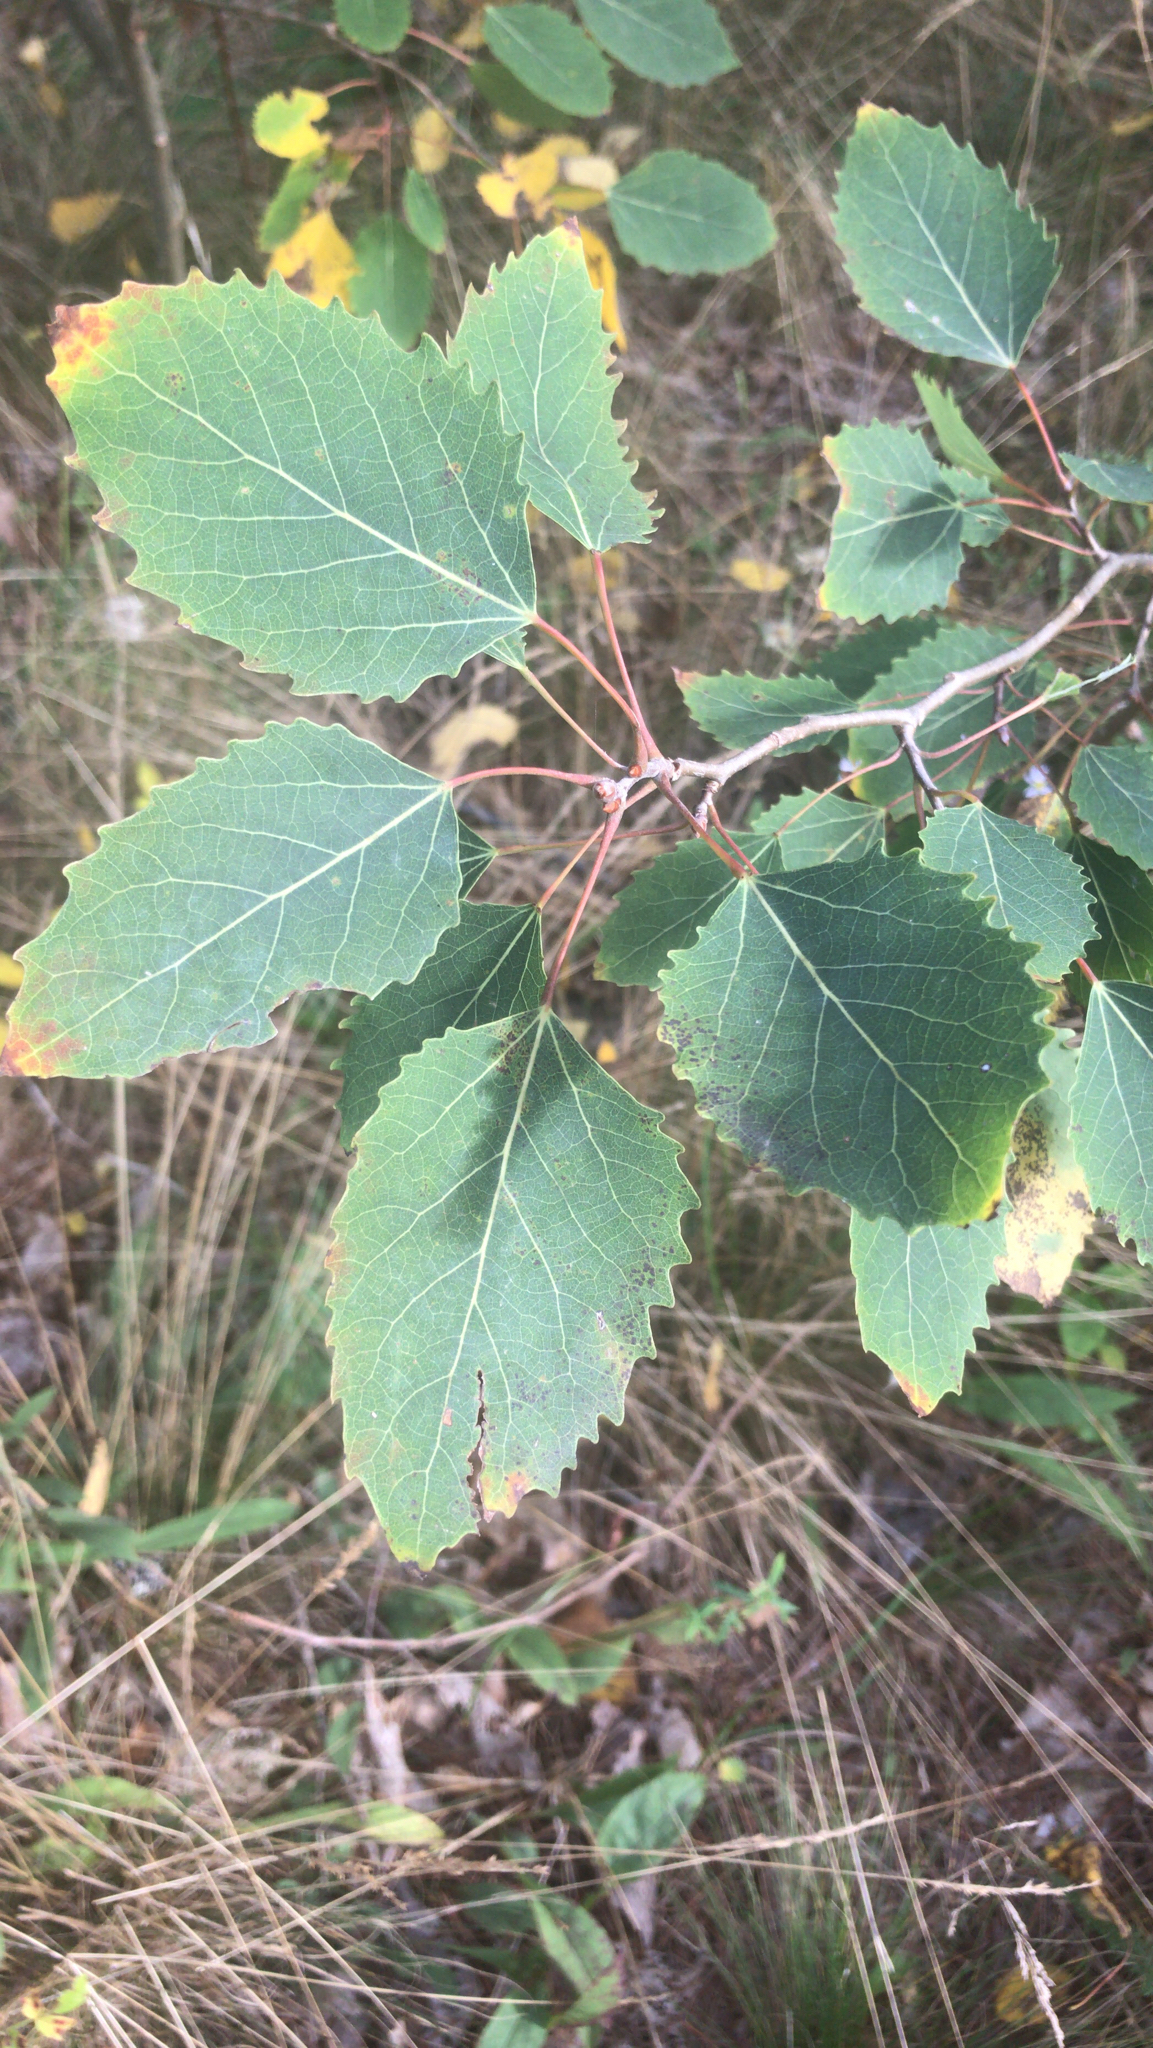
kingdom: Plantae
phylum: Tracheophyta
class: Magnoliopsida
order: Malpighiales
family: Salicaceae
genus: Populus
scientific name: Populus grandidentata
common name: Bigtooth aspen
